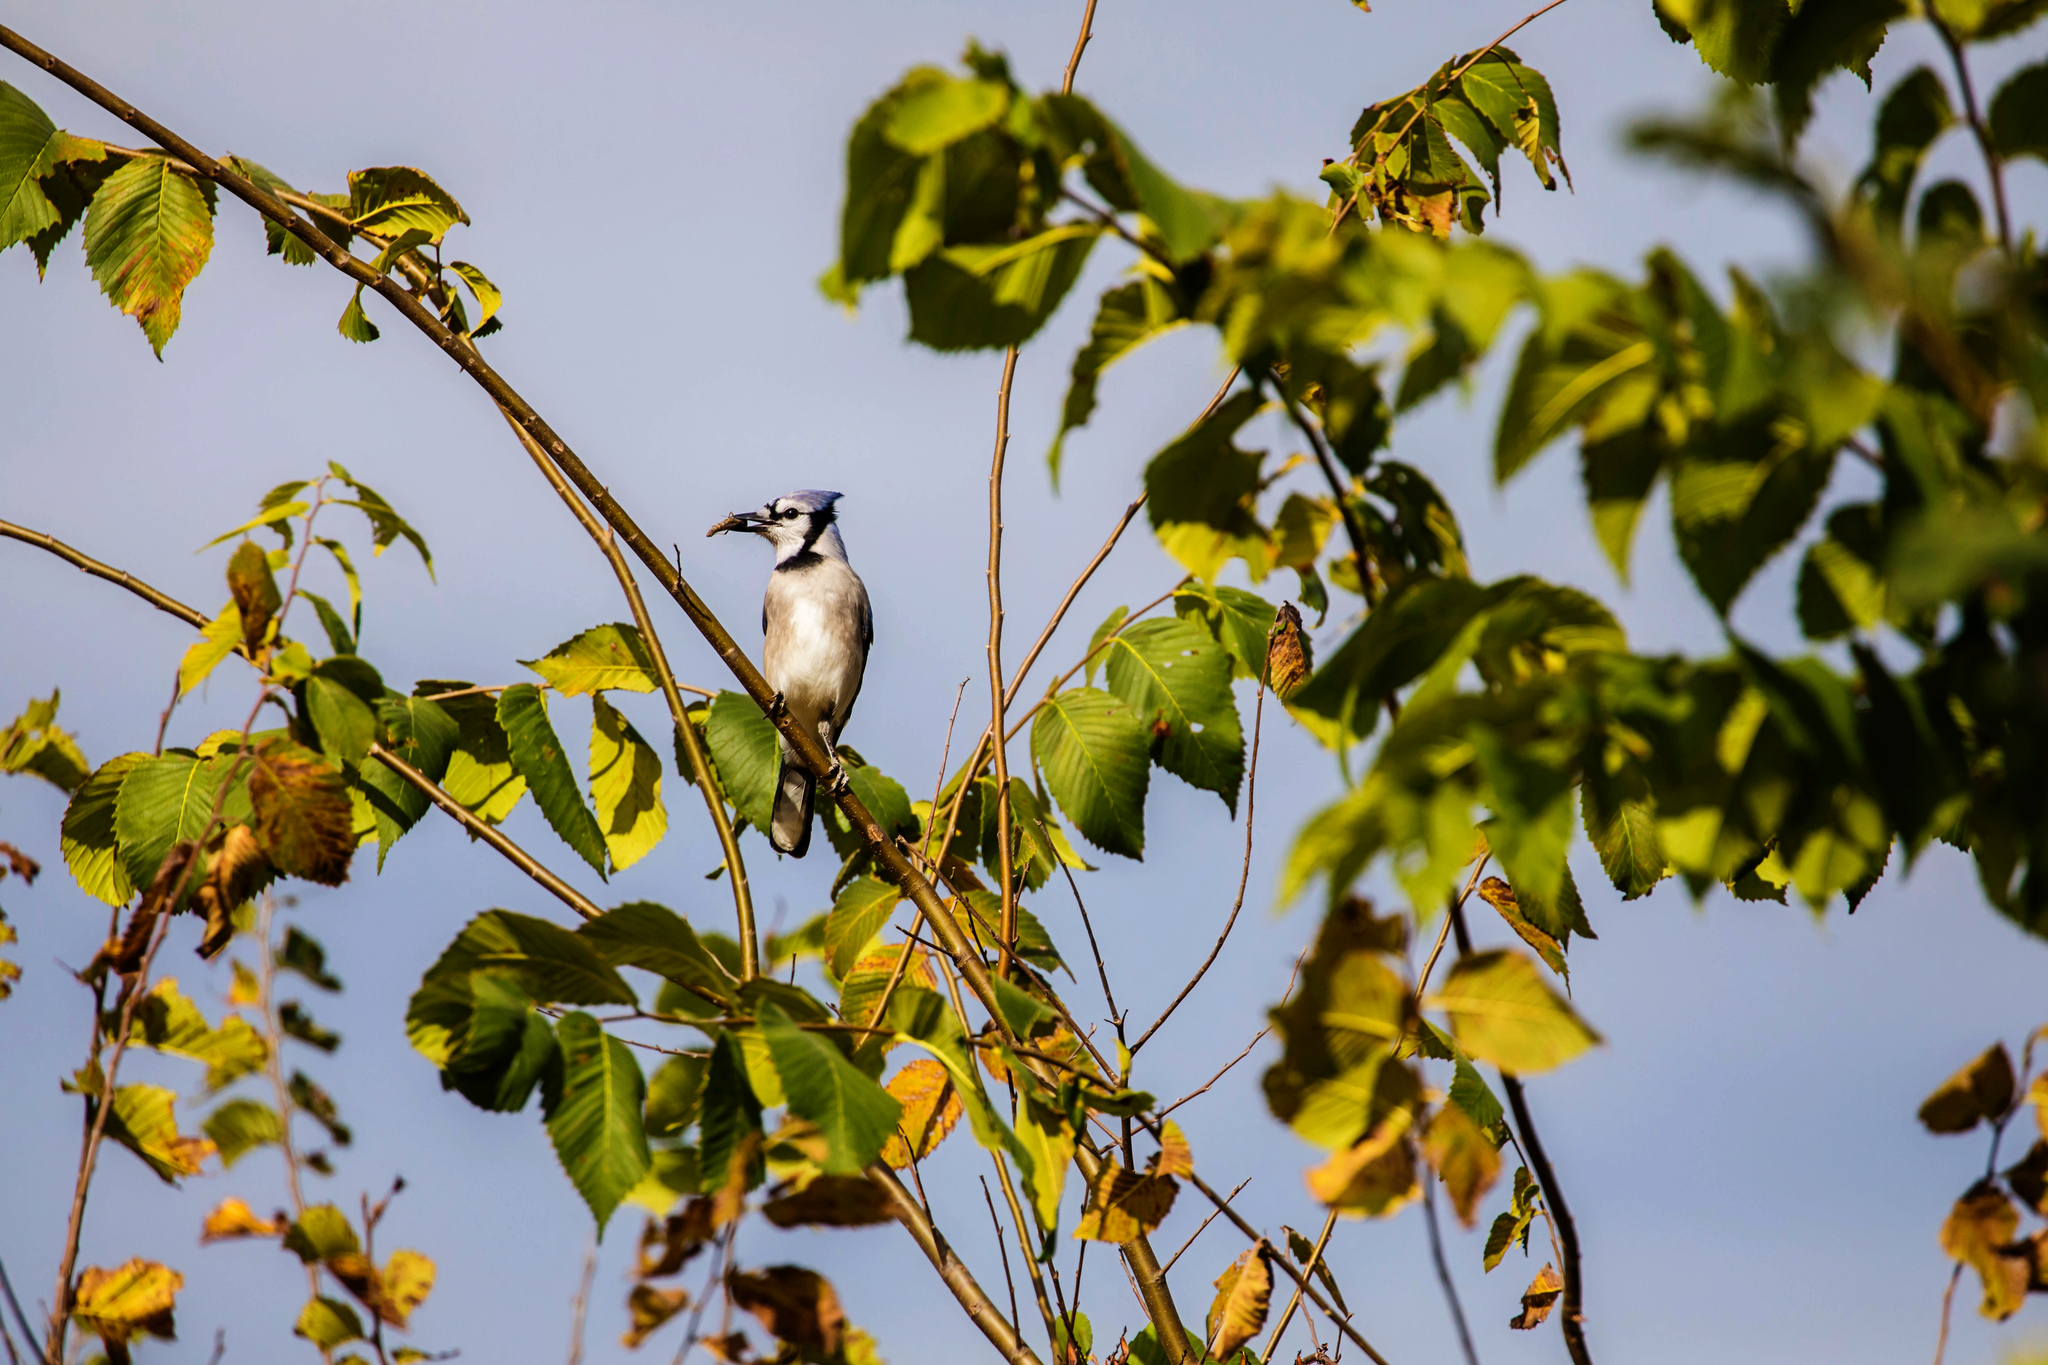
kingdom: Animalia
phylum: Chordata
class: Aves
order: Passeriformes
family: Corvidae
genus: Cyanocitta
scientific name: Cyanocitta cristata
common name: Blue jay
